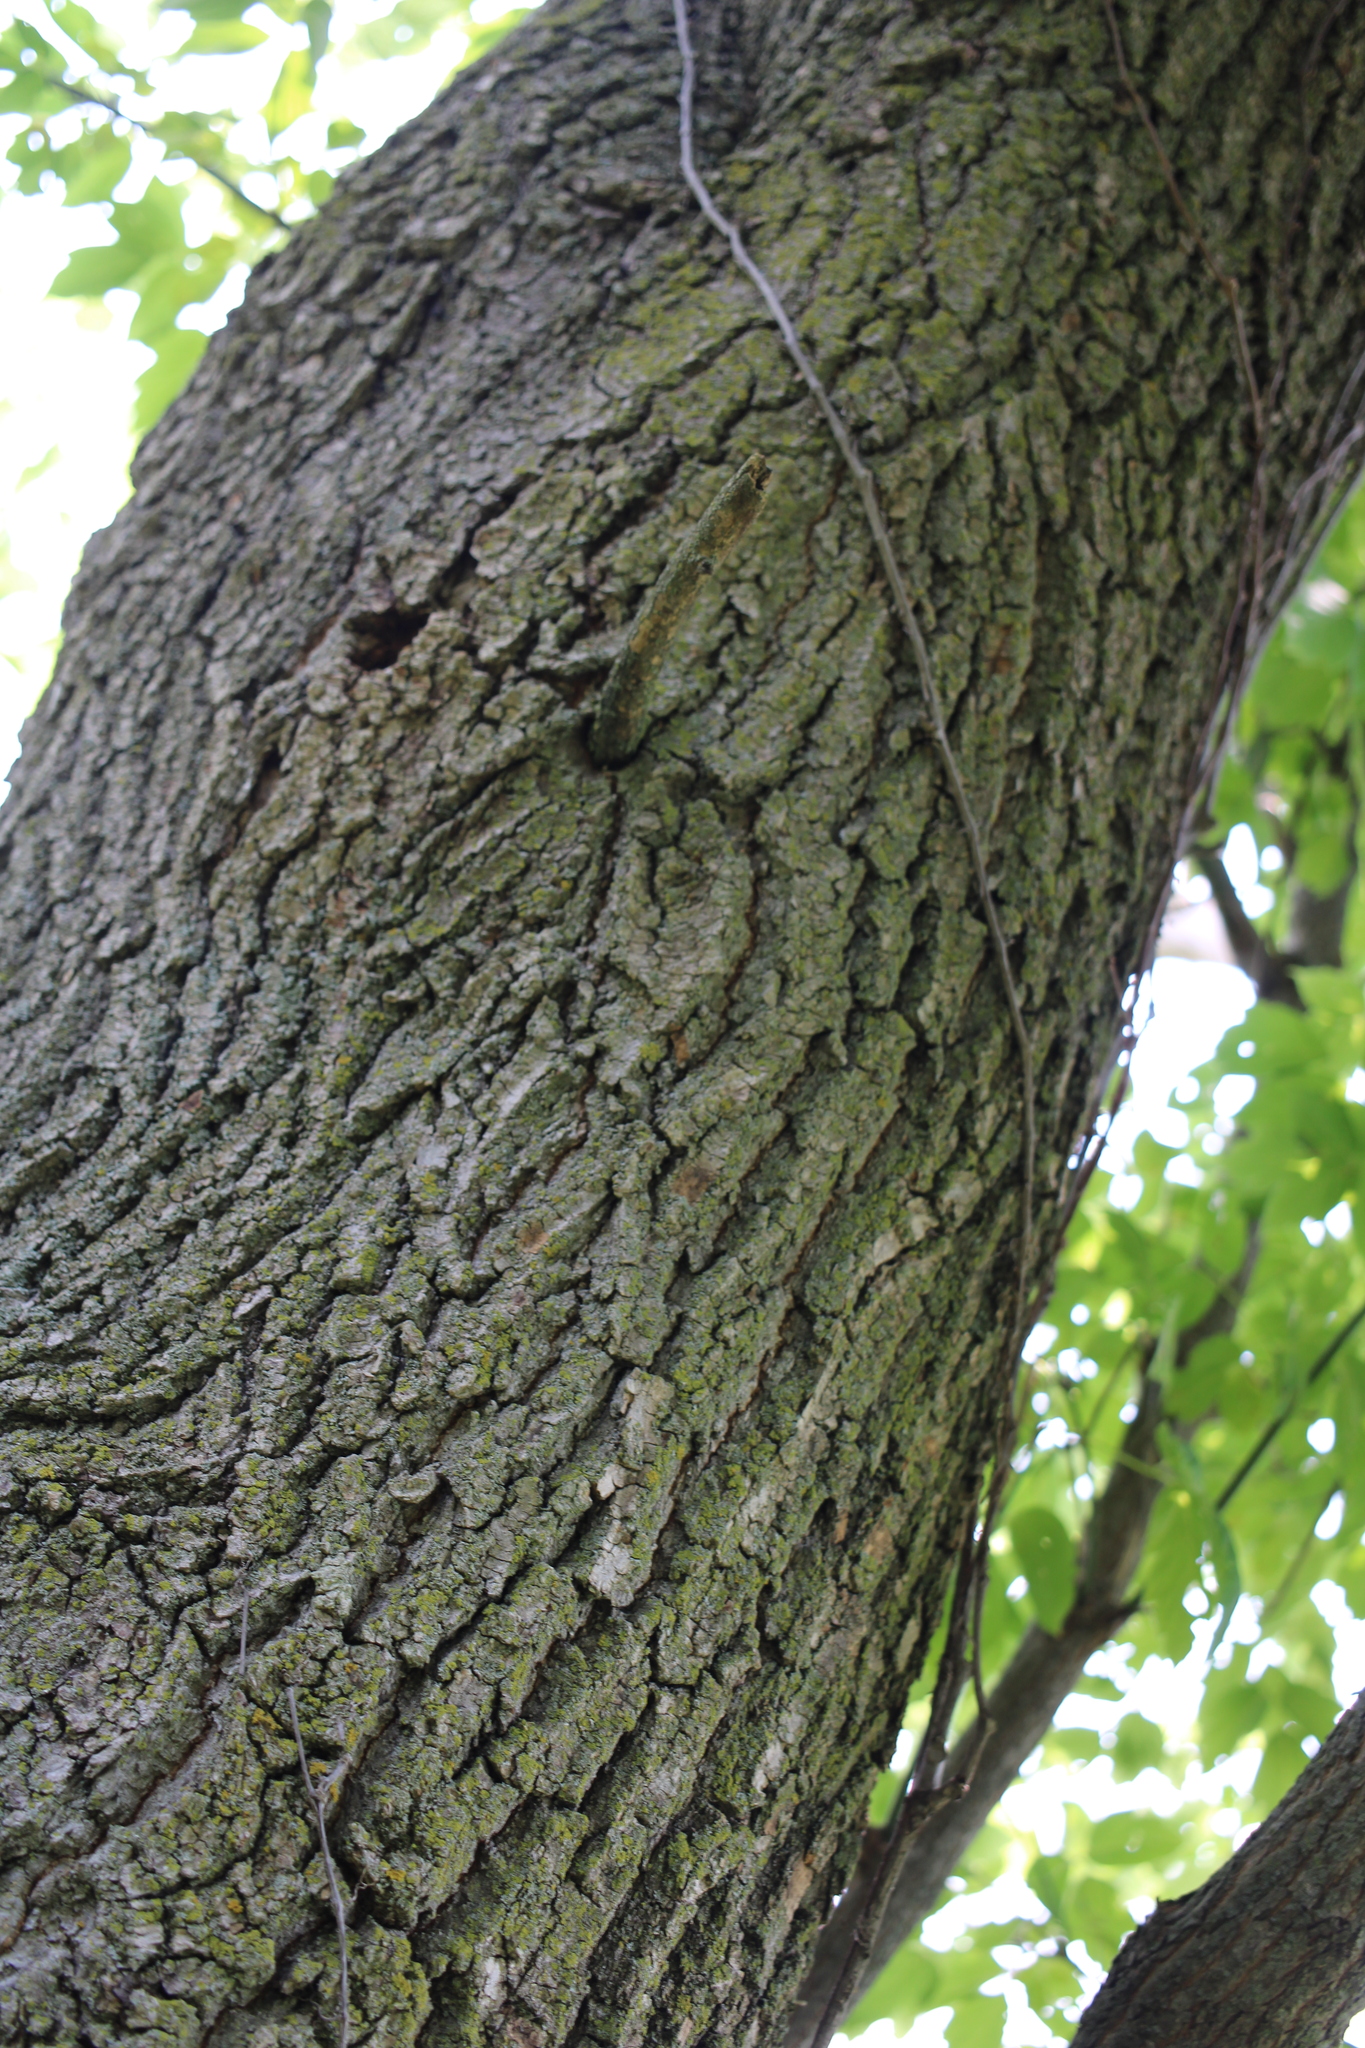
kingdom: Plantae
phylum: Tracheophyta
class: Magnoliopsida
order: Sapindales
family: Sapindaceae
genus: Acer
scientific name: Acer negundo
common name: Ashleaf maple
